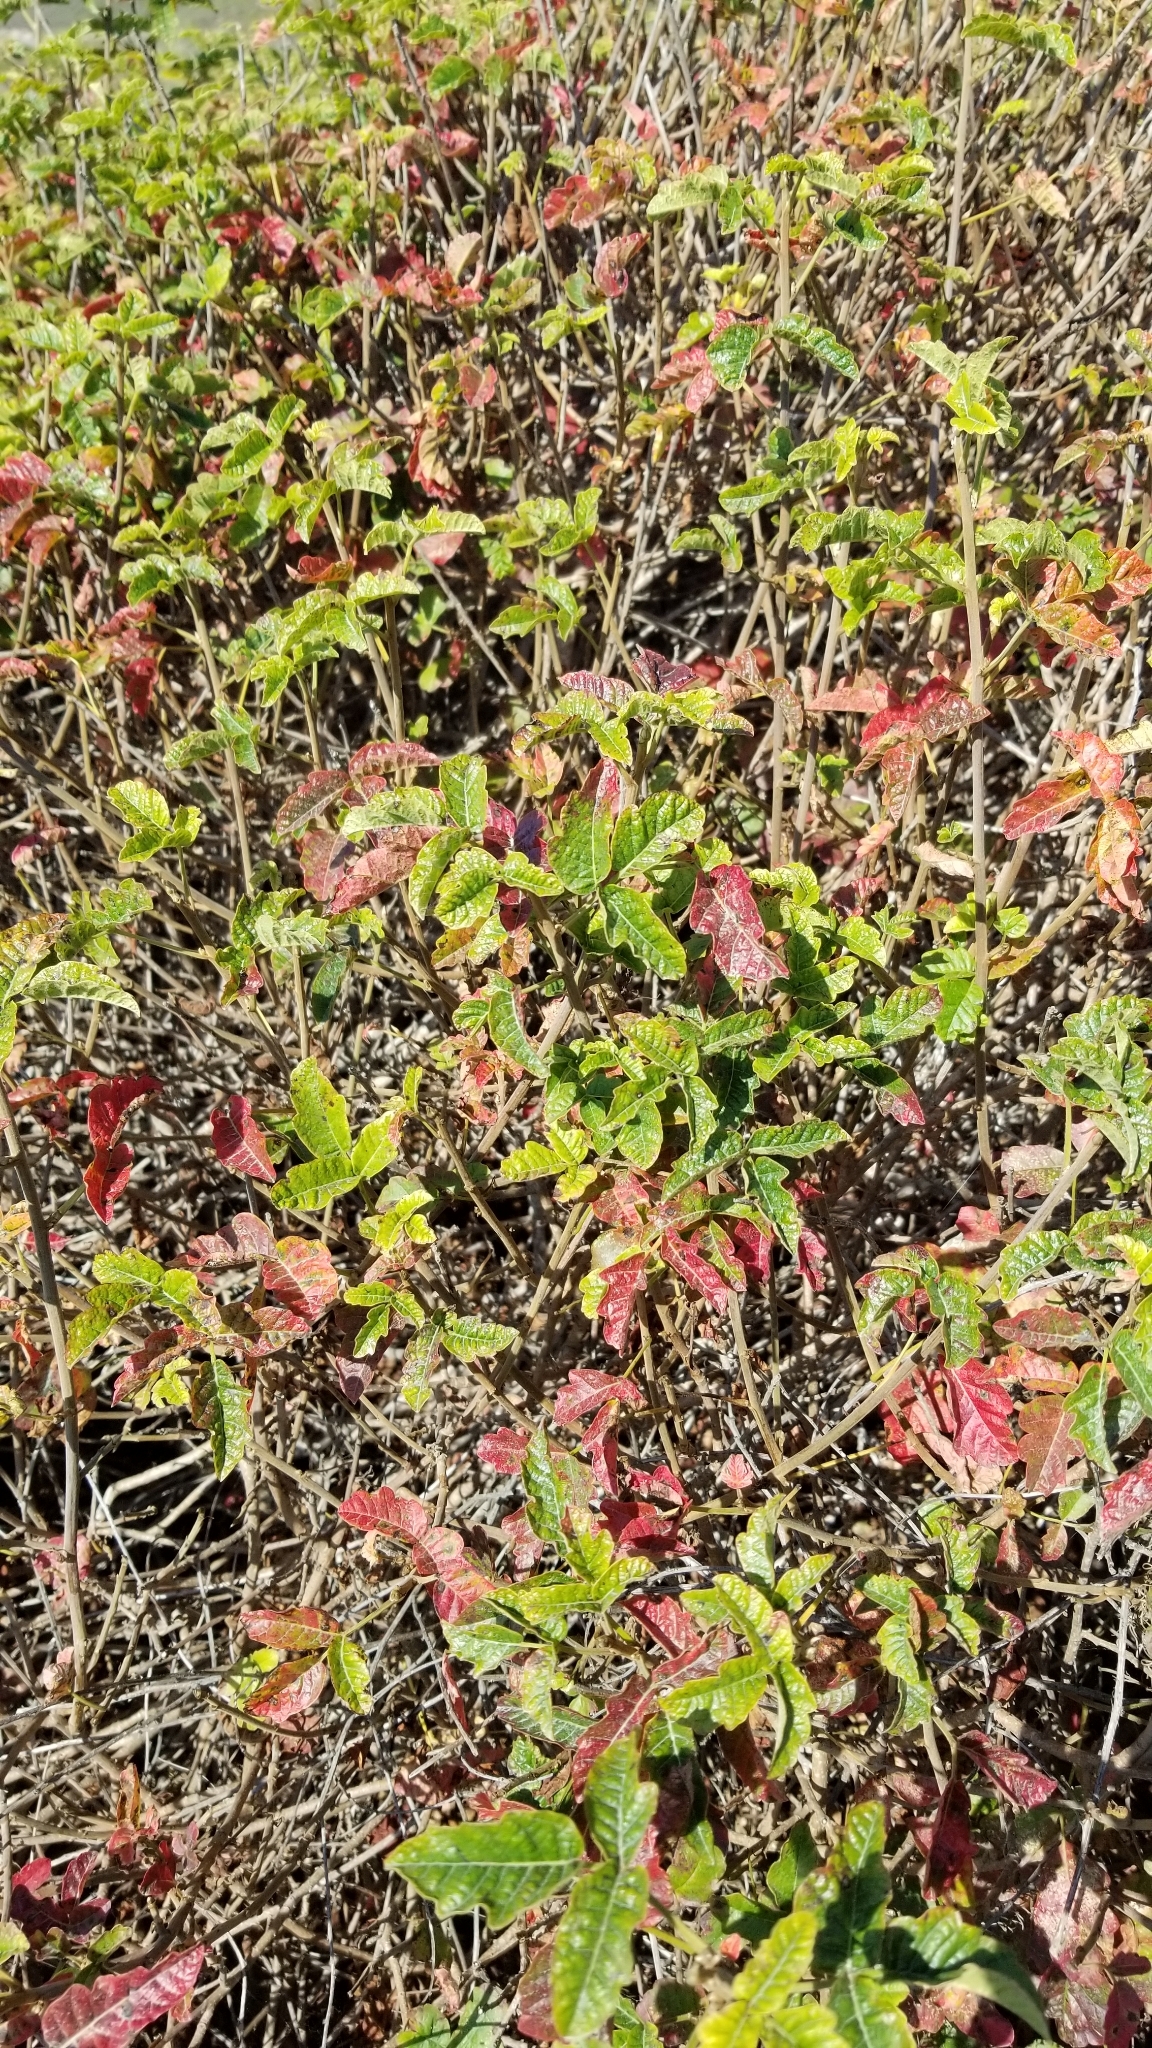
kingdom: Plantae
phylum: Tracheophyta
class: Magnoliopsida
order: Sapindales
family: Anacardiaceae
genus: Toxicodendron
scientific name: Toxicodendron diversilobum
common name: Pacific poison-oak
